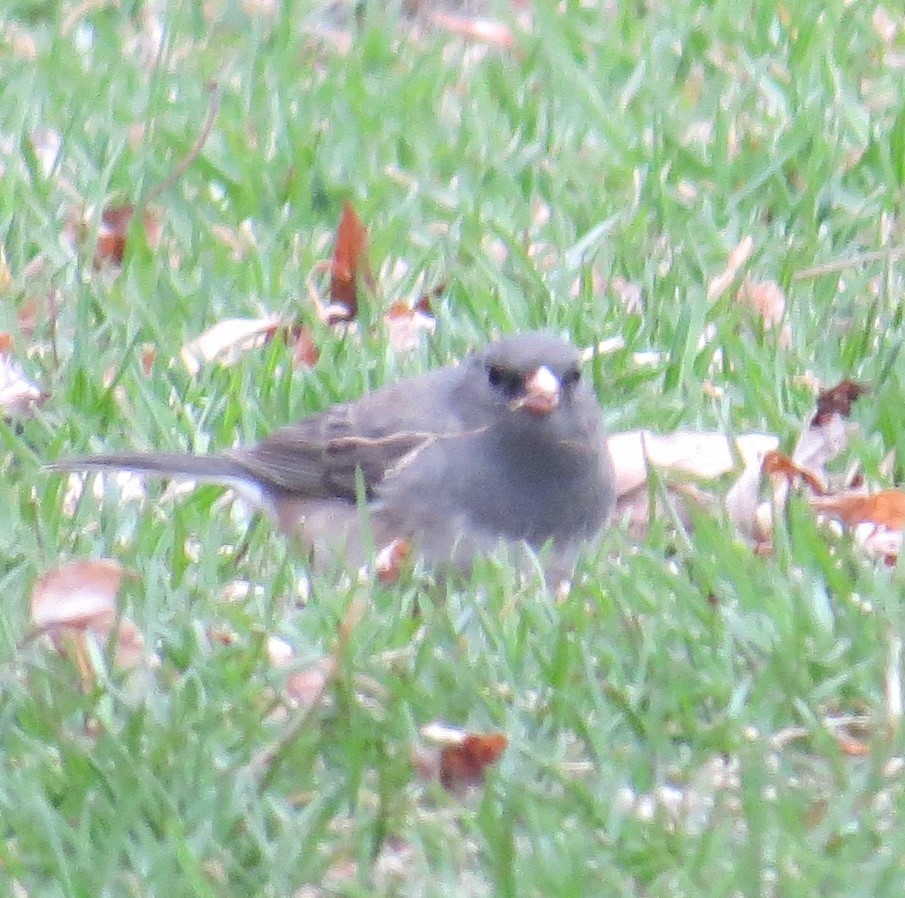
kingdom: Animalia
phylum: Chordata
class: Aves
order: Passeriformes
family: Passerellidae
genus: Junco
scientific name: Junco hyemalis
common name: Dark-eyed junco
